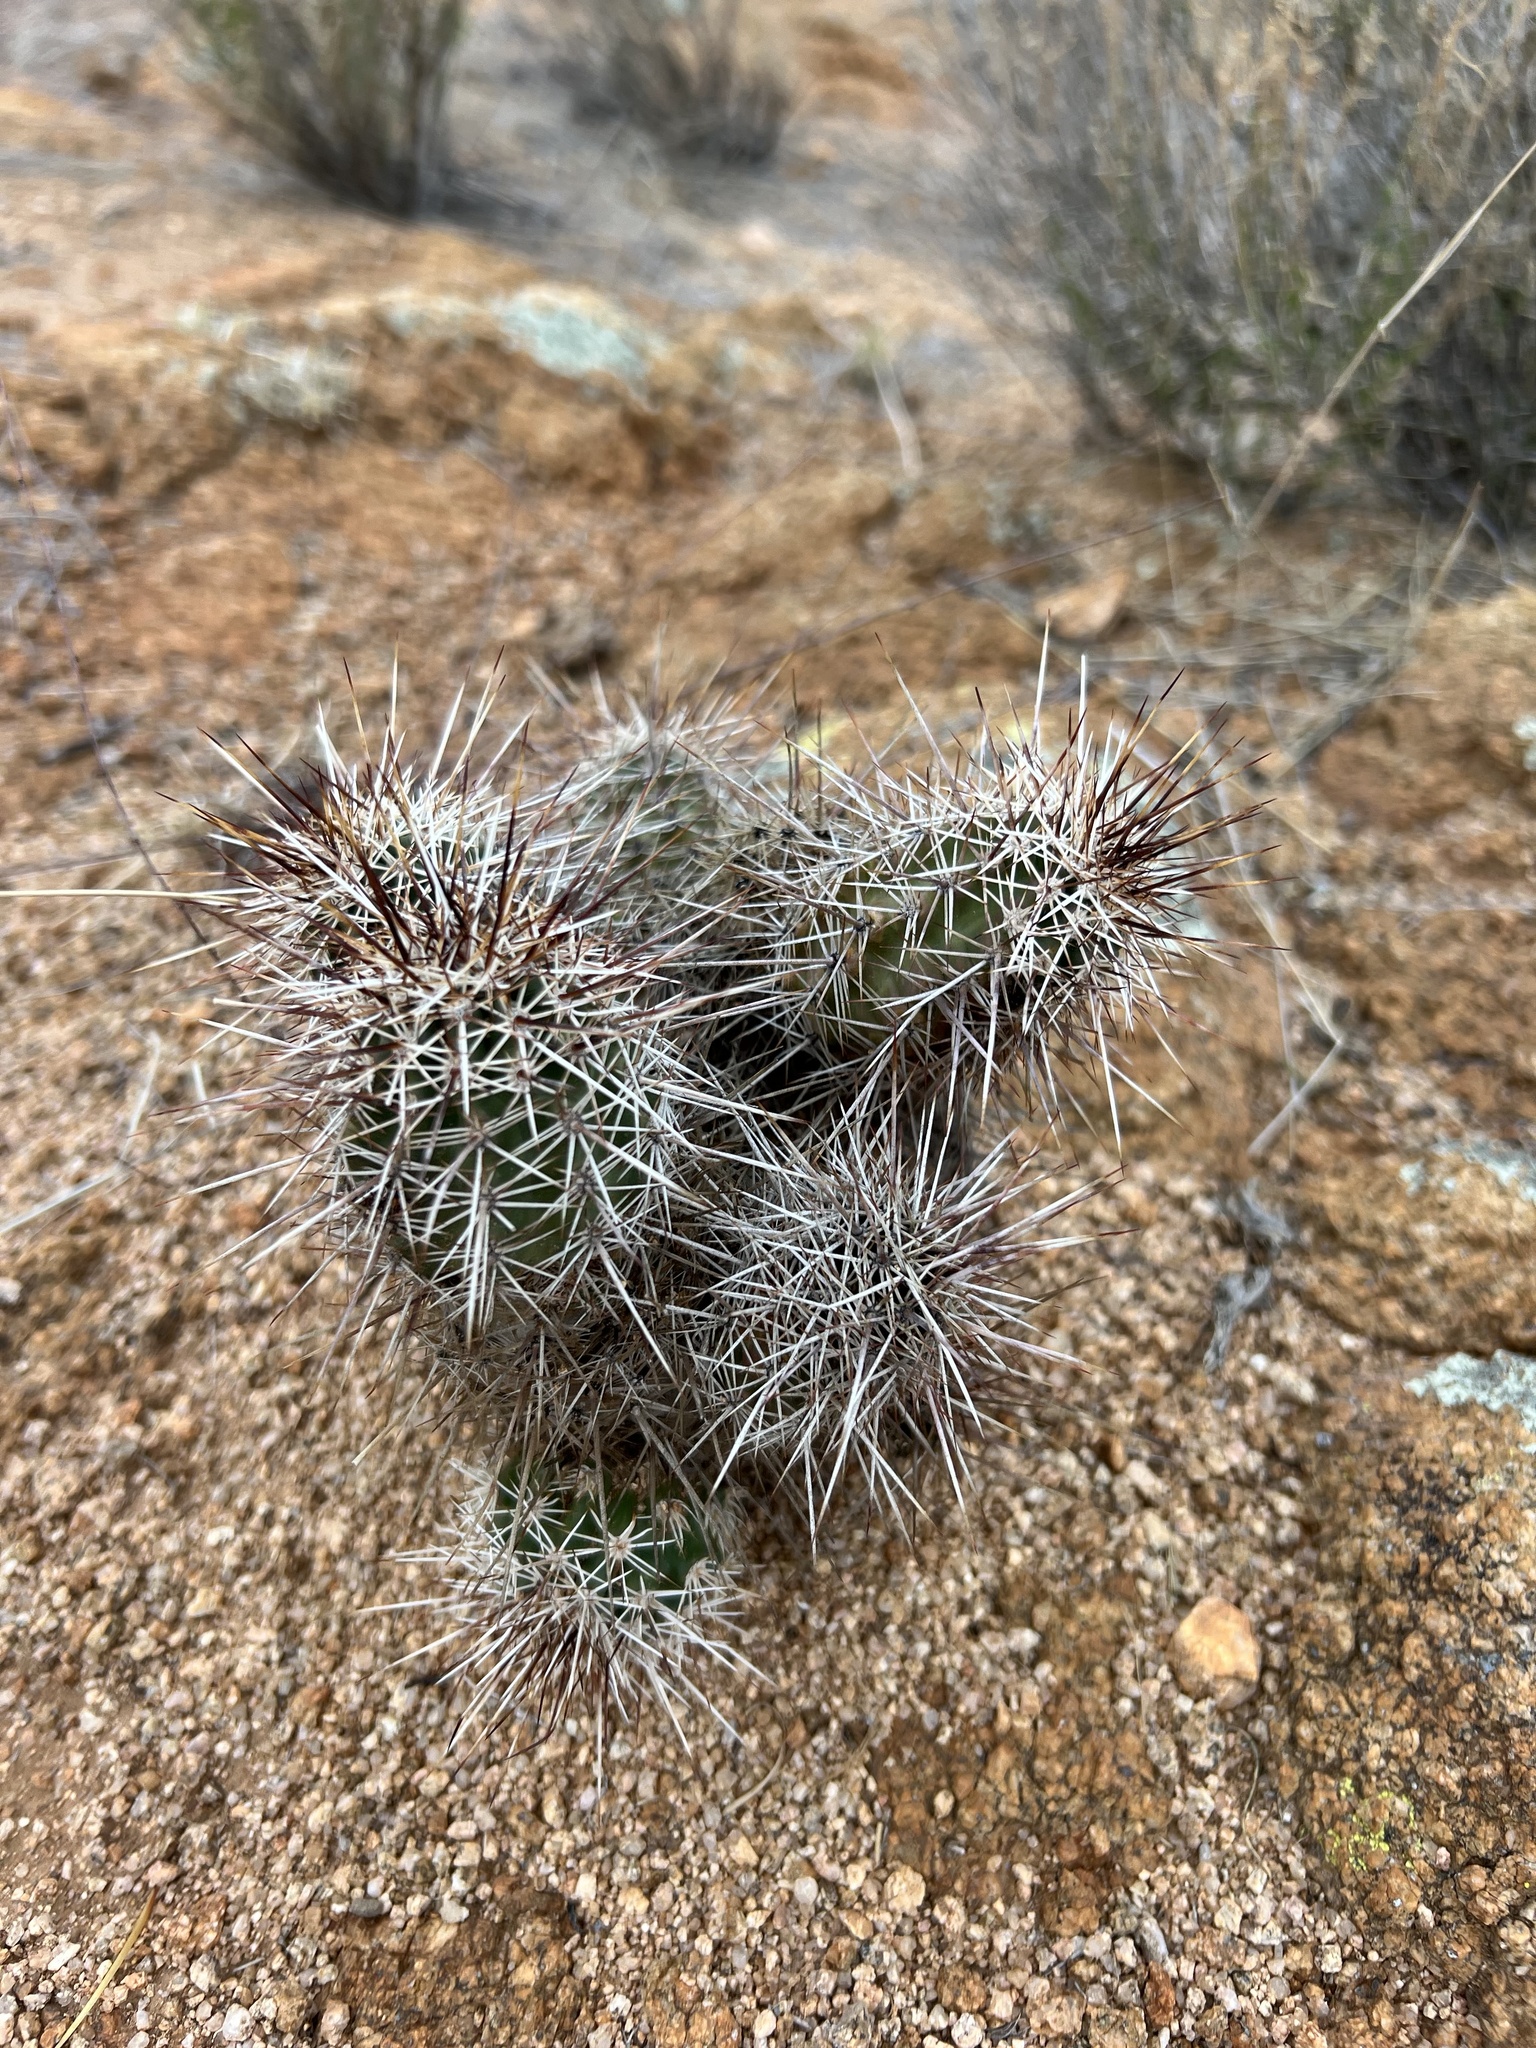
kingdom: Plantae
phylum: Tracheophyta
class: Magnoliopsida
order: Caryophyllales
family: Cactaceae
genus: Echinocereus
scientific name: Echinocereus fasciculatus
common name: Bundle hedgehog
